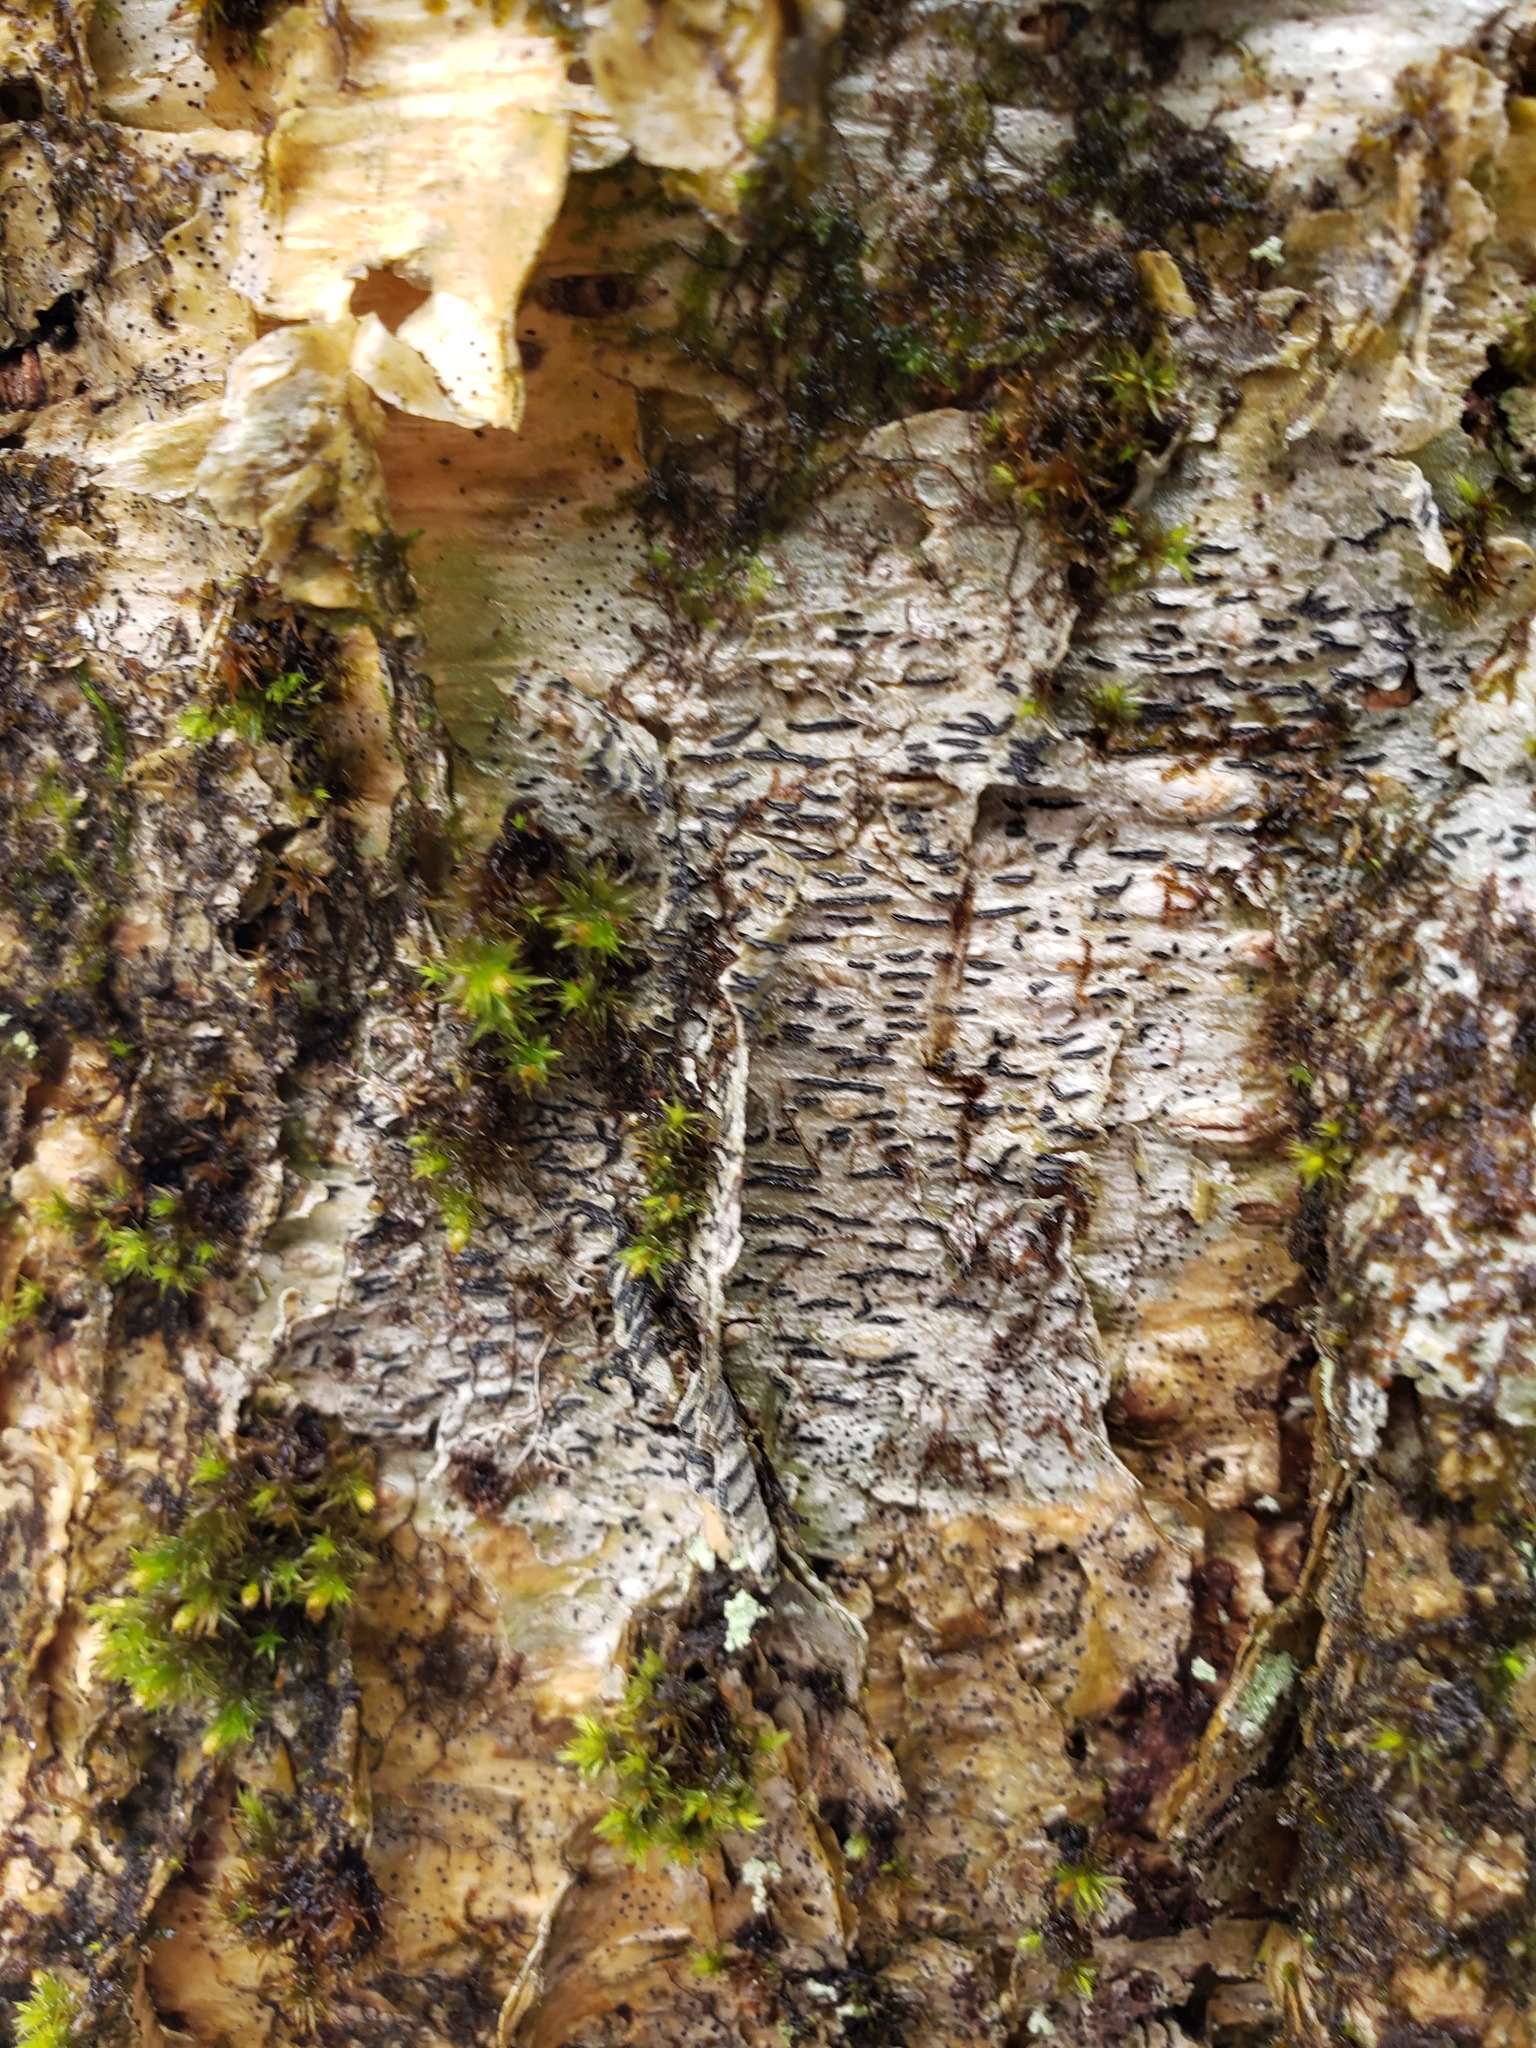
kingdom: Fungi
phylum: Ascomycota
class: Lecanoromycetes
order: Ostropales
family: Graphidaceae
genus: Graphis
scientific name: Graphis scripta
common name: Script lichen
